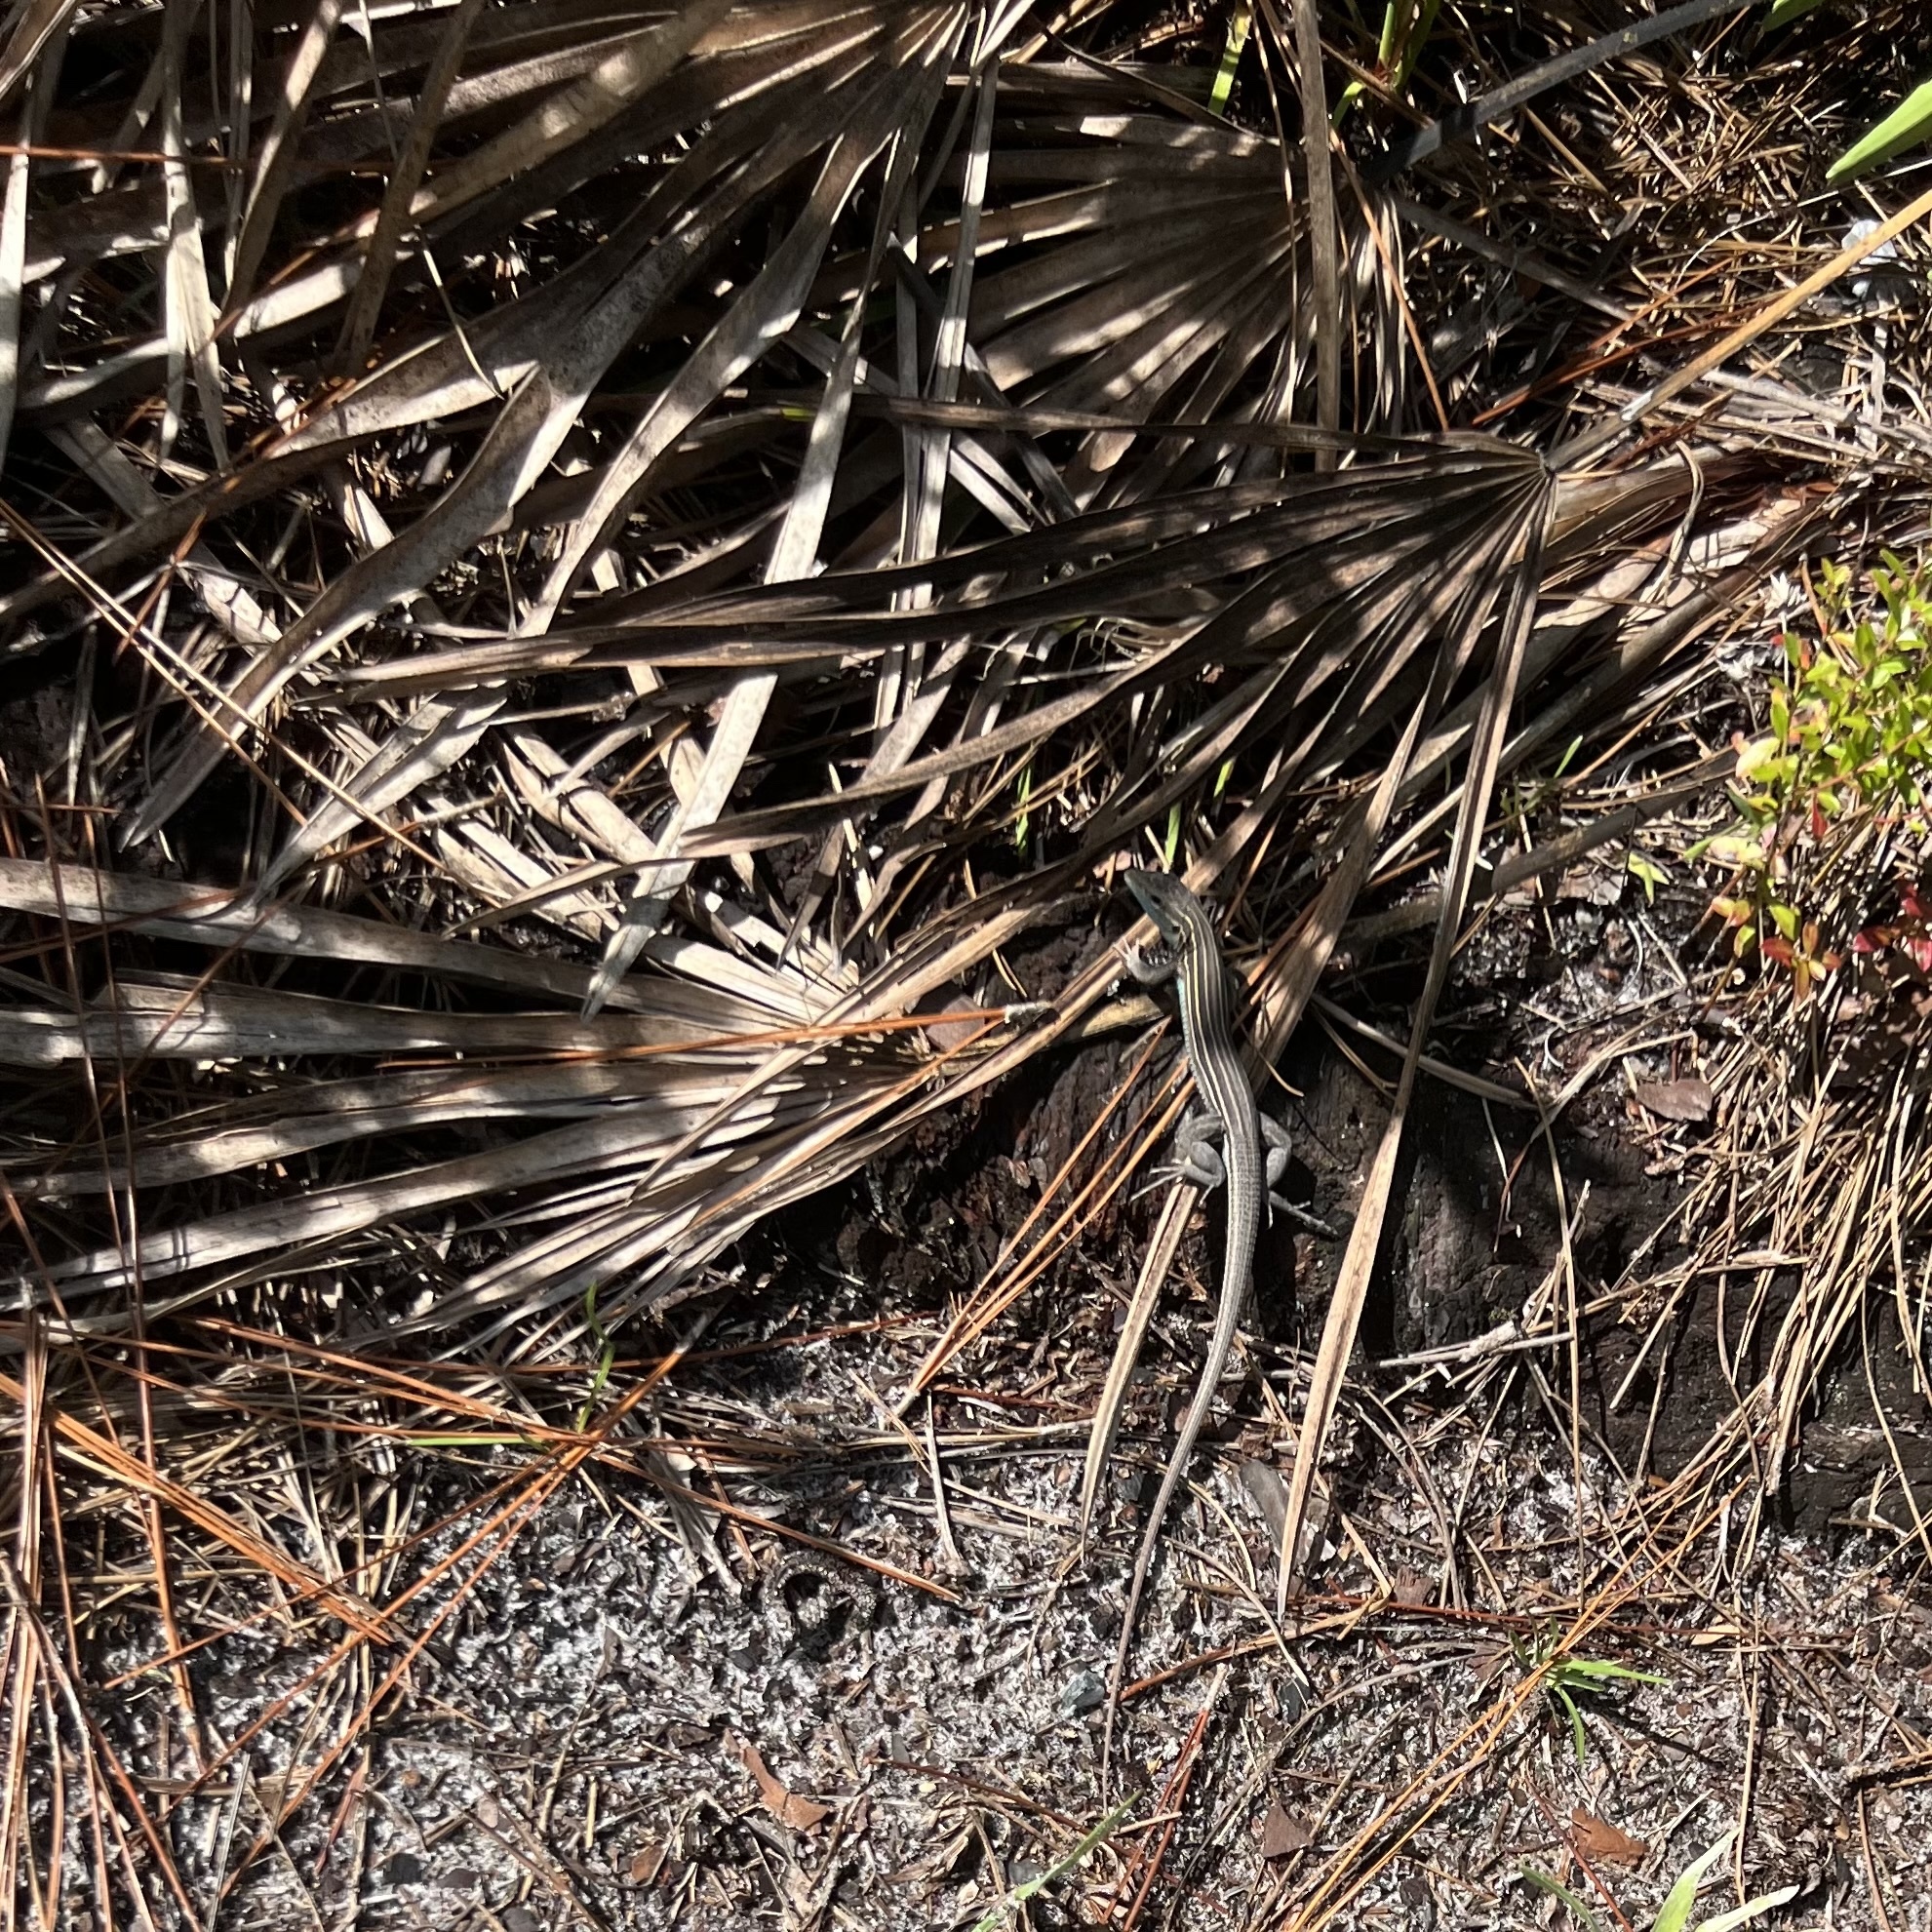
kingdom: Animalia
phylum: Chordata
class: Squamata
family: Teiidae
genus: Aspidoscelis
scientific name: Aspidoscelis sexlineatus
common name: Six-lined racerunner
